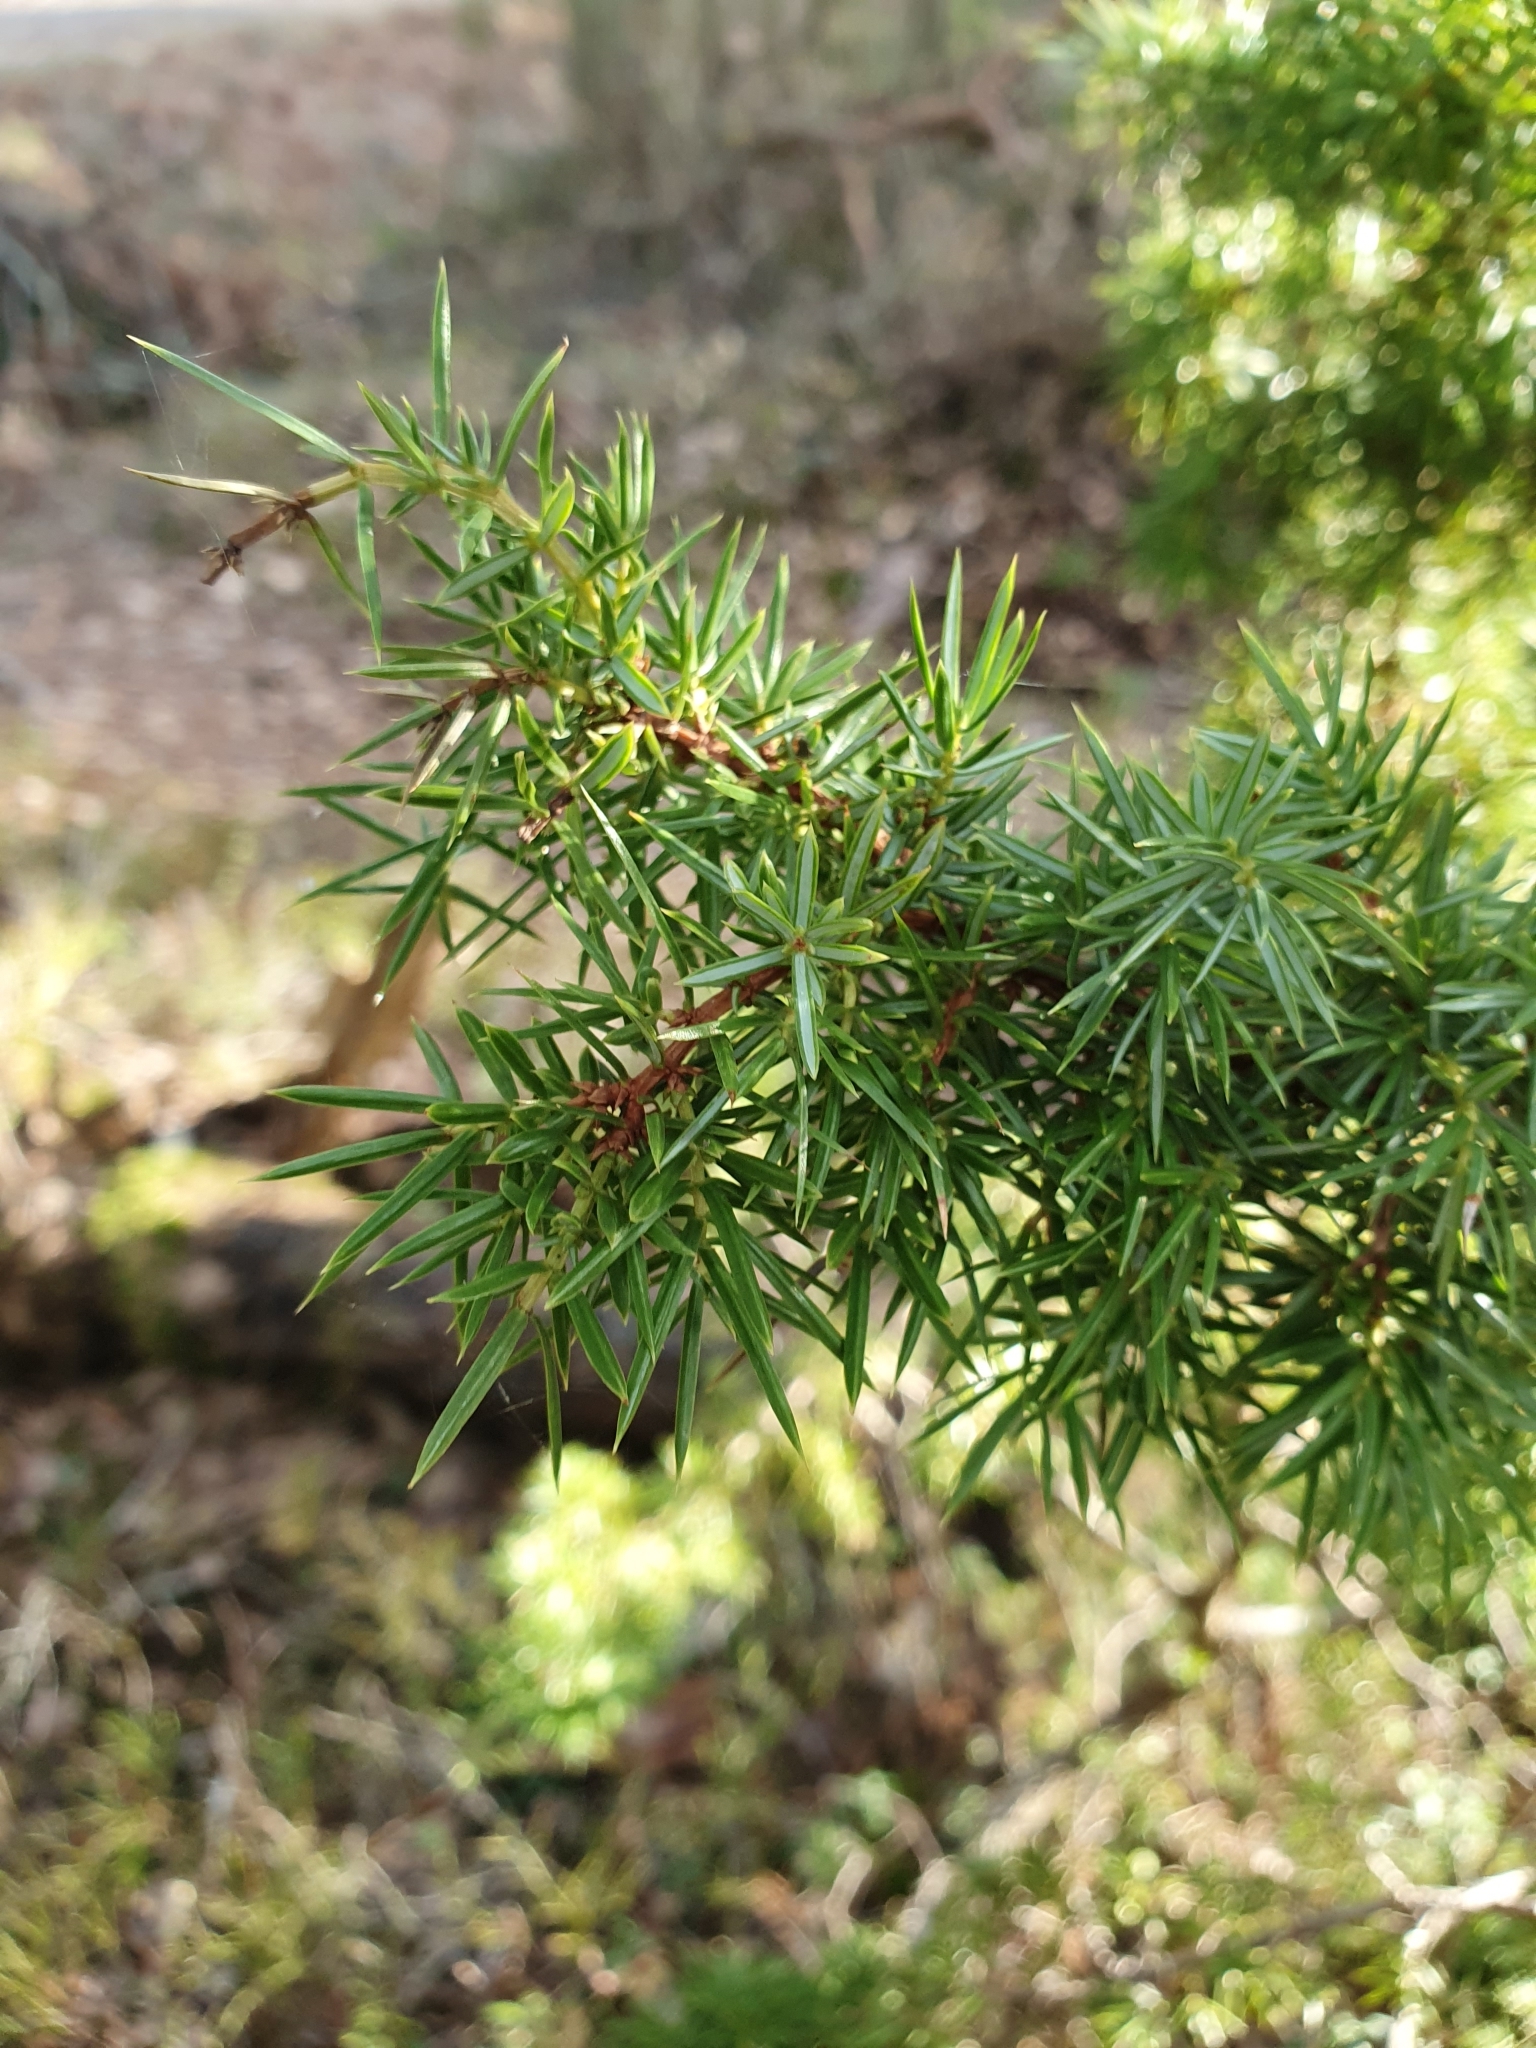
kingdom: Plantae
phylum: Tracheophyta
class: Pinopsida
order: Pinales
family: Cupressaceae
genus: Juniperus
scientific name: Juniperus communis
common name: Common juniper
